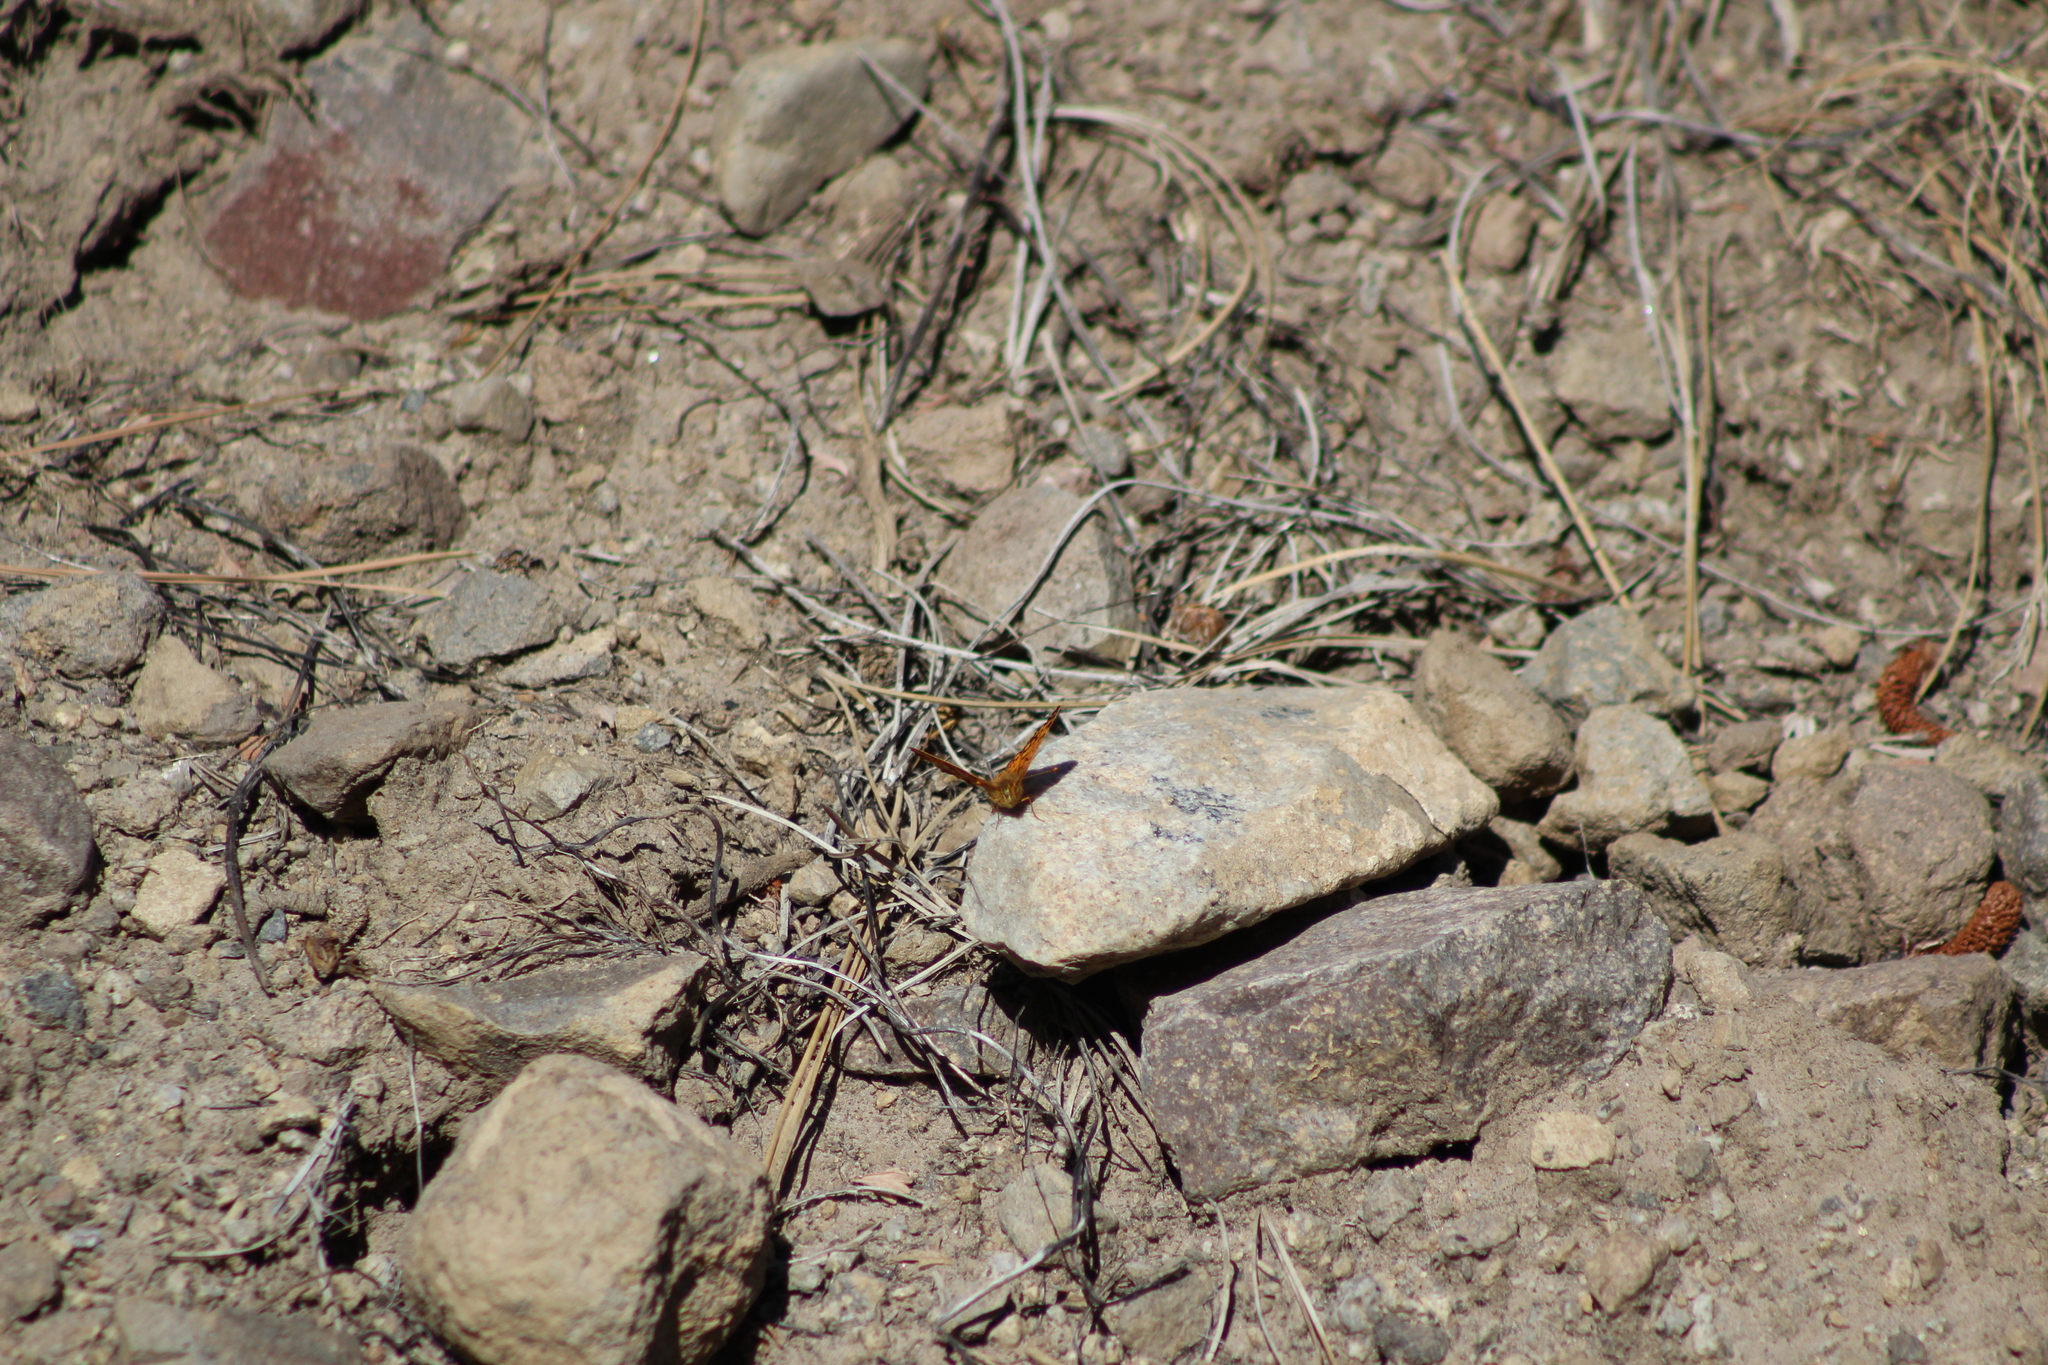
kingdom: Animalia
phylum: Arthropoda
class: Insecta
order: Lepidoptera
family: Nymphalidae
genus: Eresia
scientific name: Eresia aveyrona
